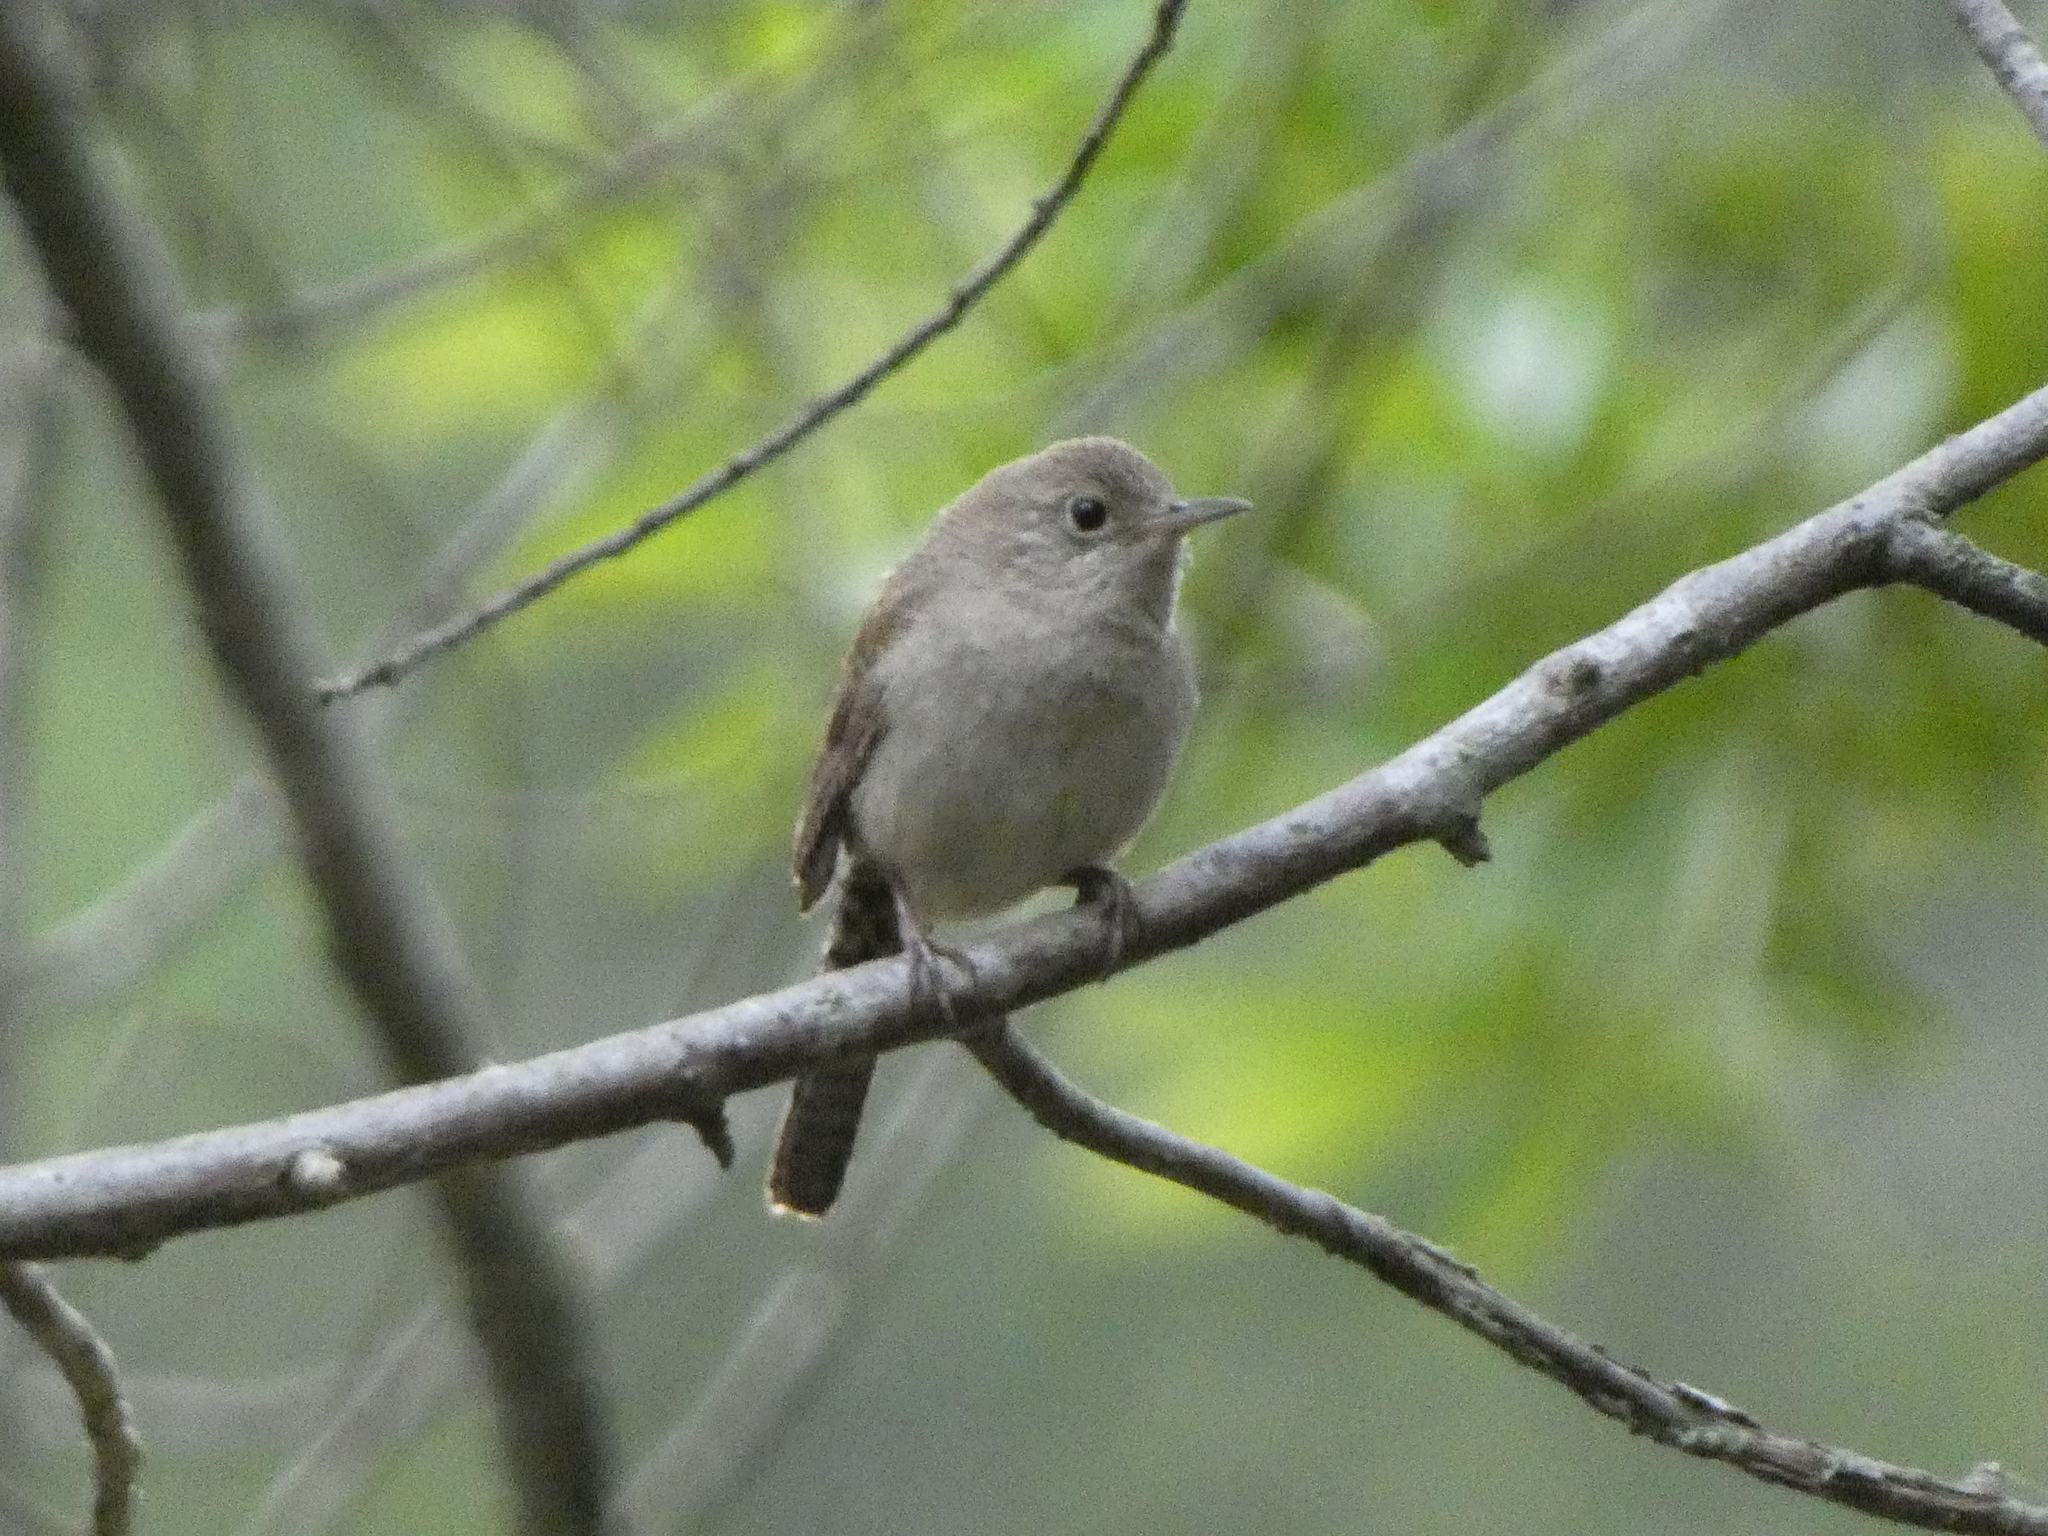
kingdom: Animalia
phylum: Chordata
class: Aves
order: Passeriformes
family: Troglodytidae
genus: Troglodytes
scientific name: Troglodytes aedon
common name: House wren
